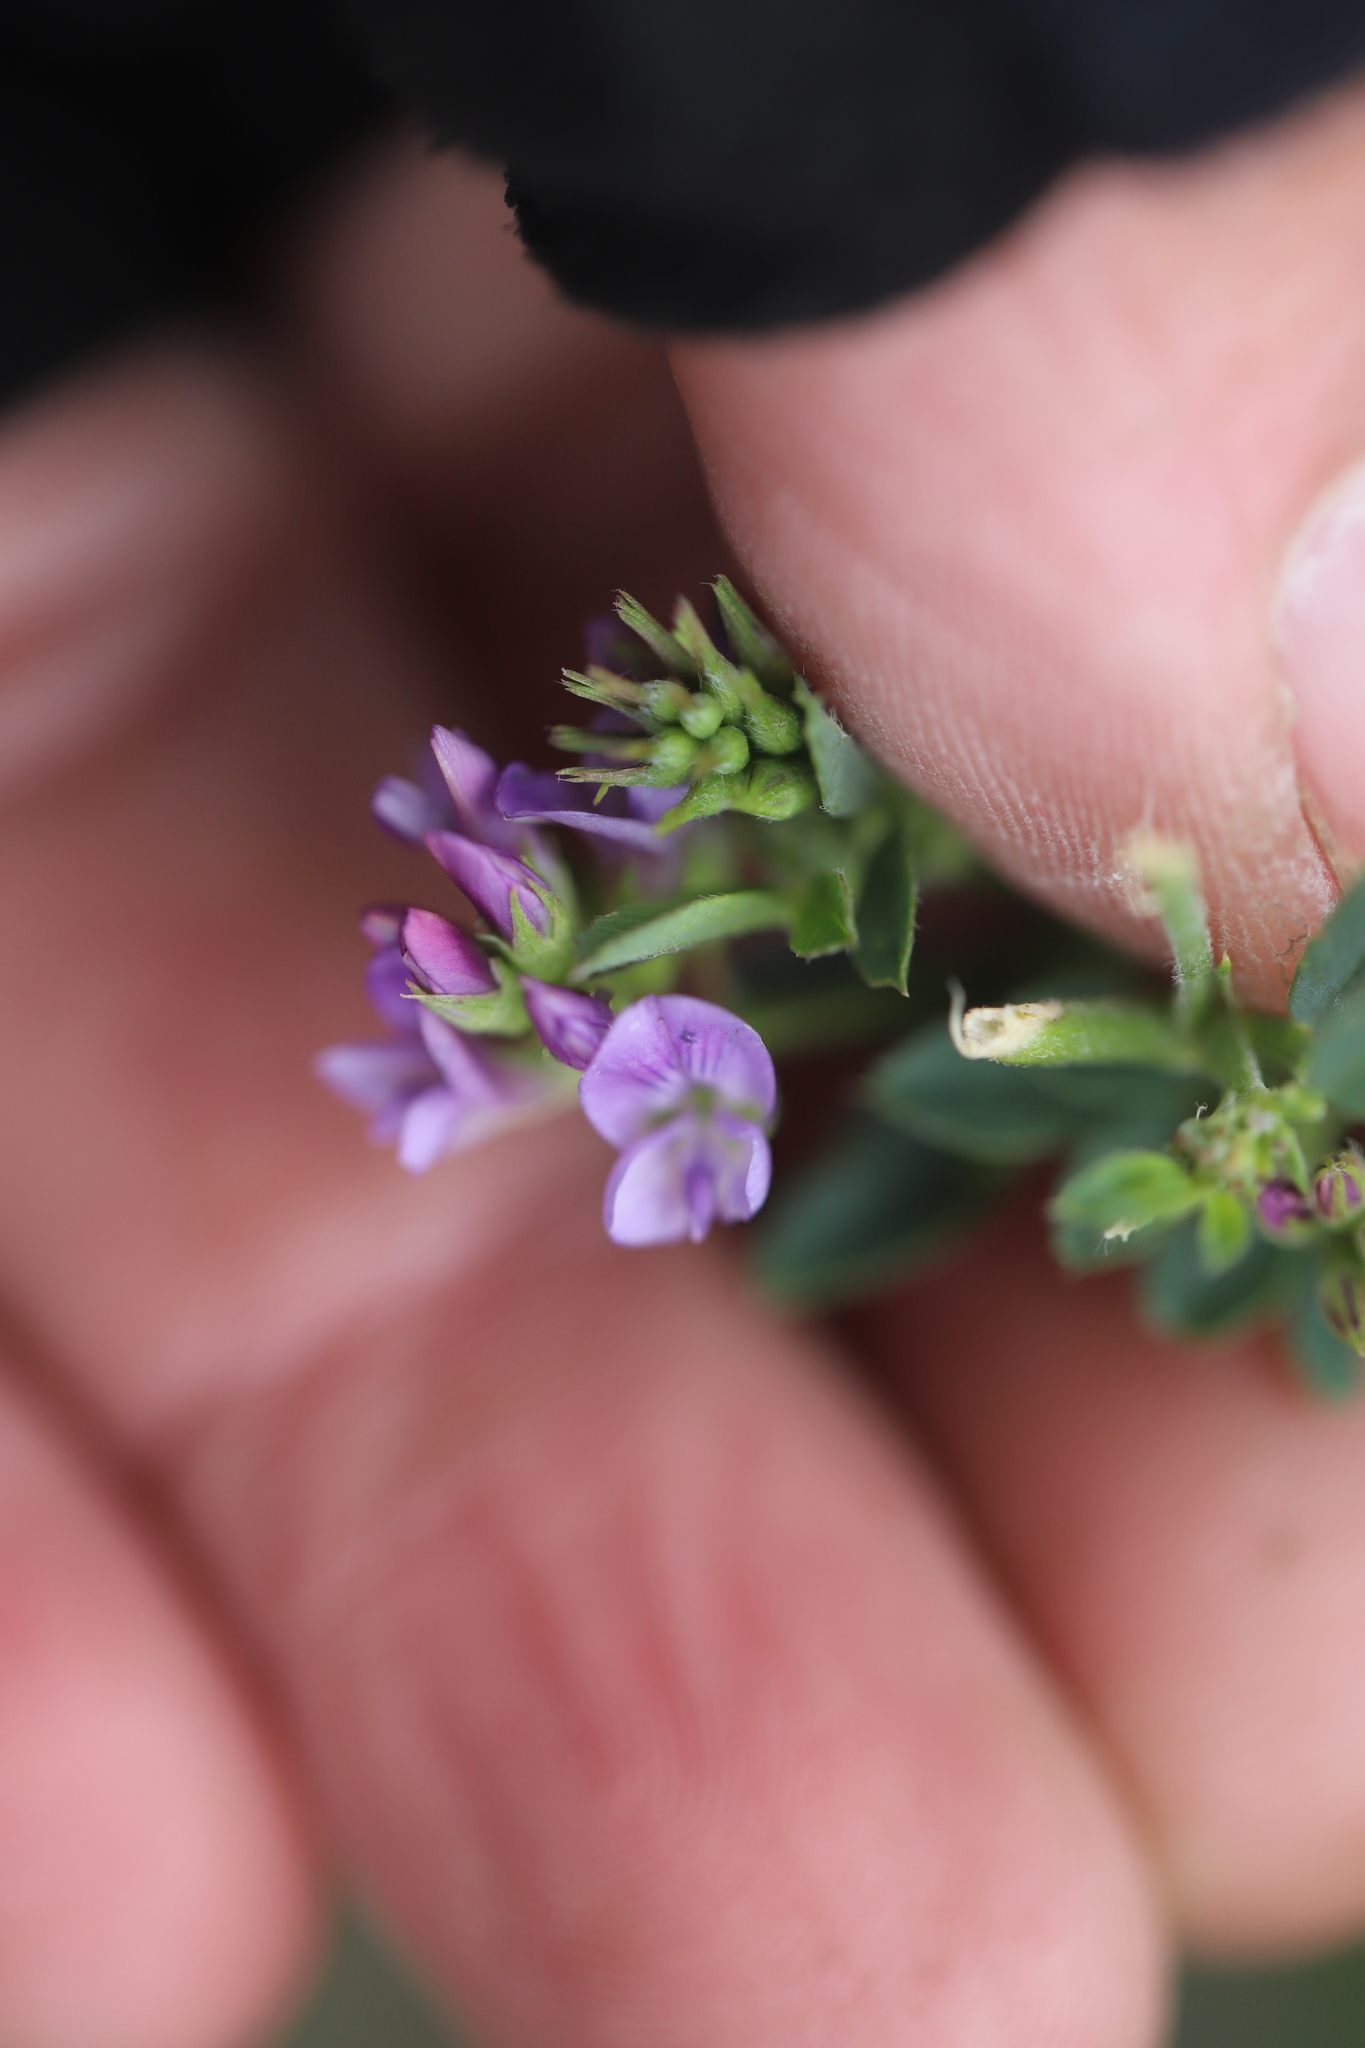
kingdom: Plantae
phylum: Tracheophyta
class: Magnoliopsida
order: Fabales
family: Fabaceae
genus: Medicago
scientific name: Medicago sativa
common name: Alfalfa
